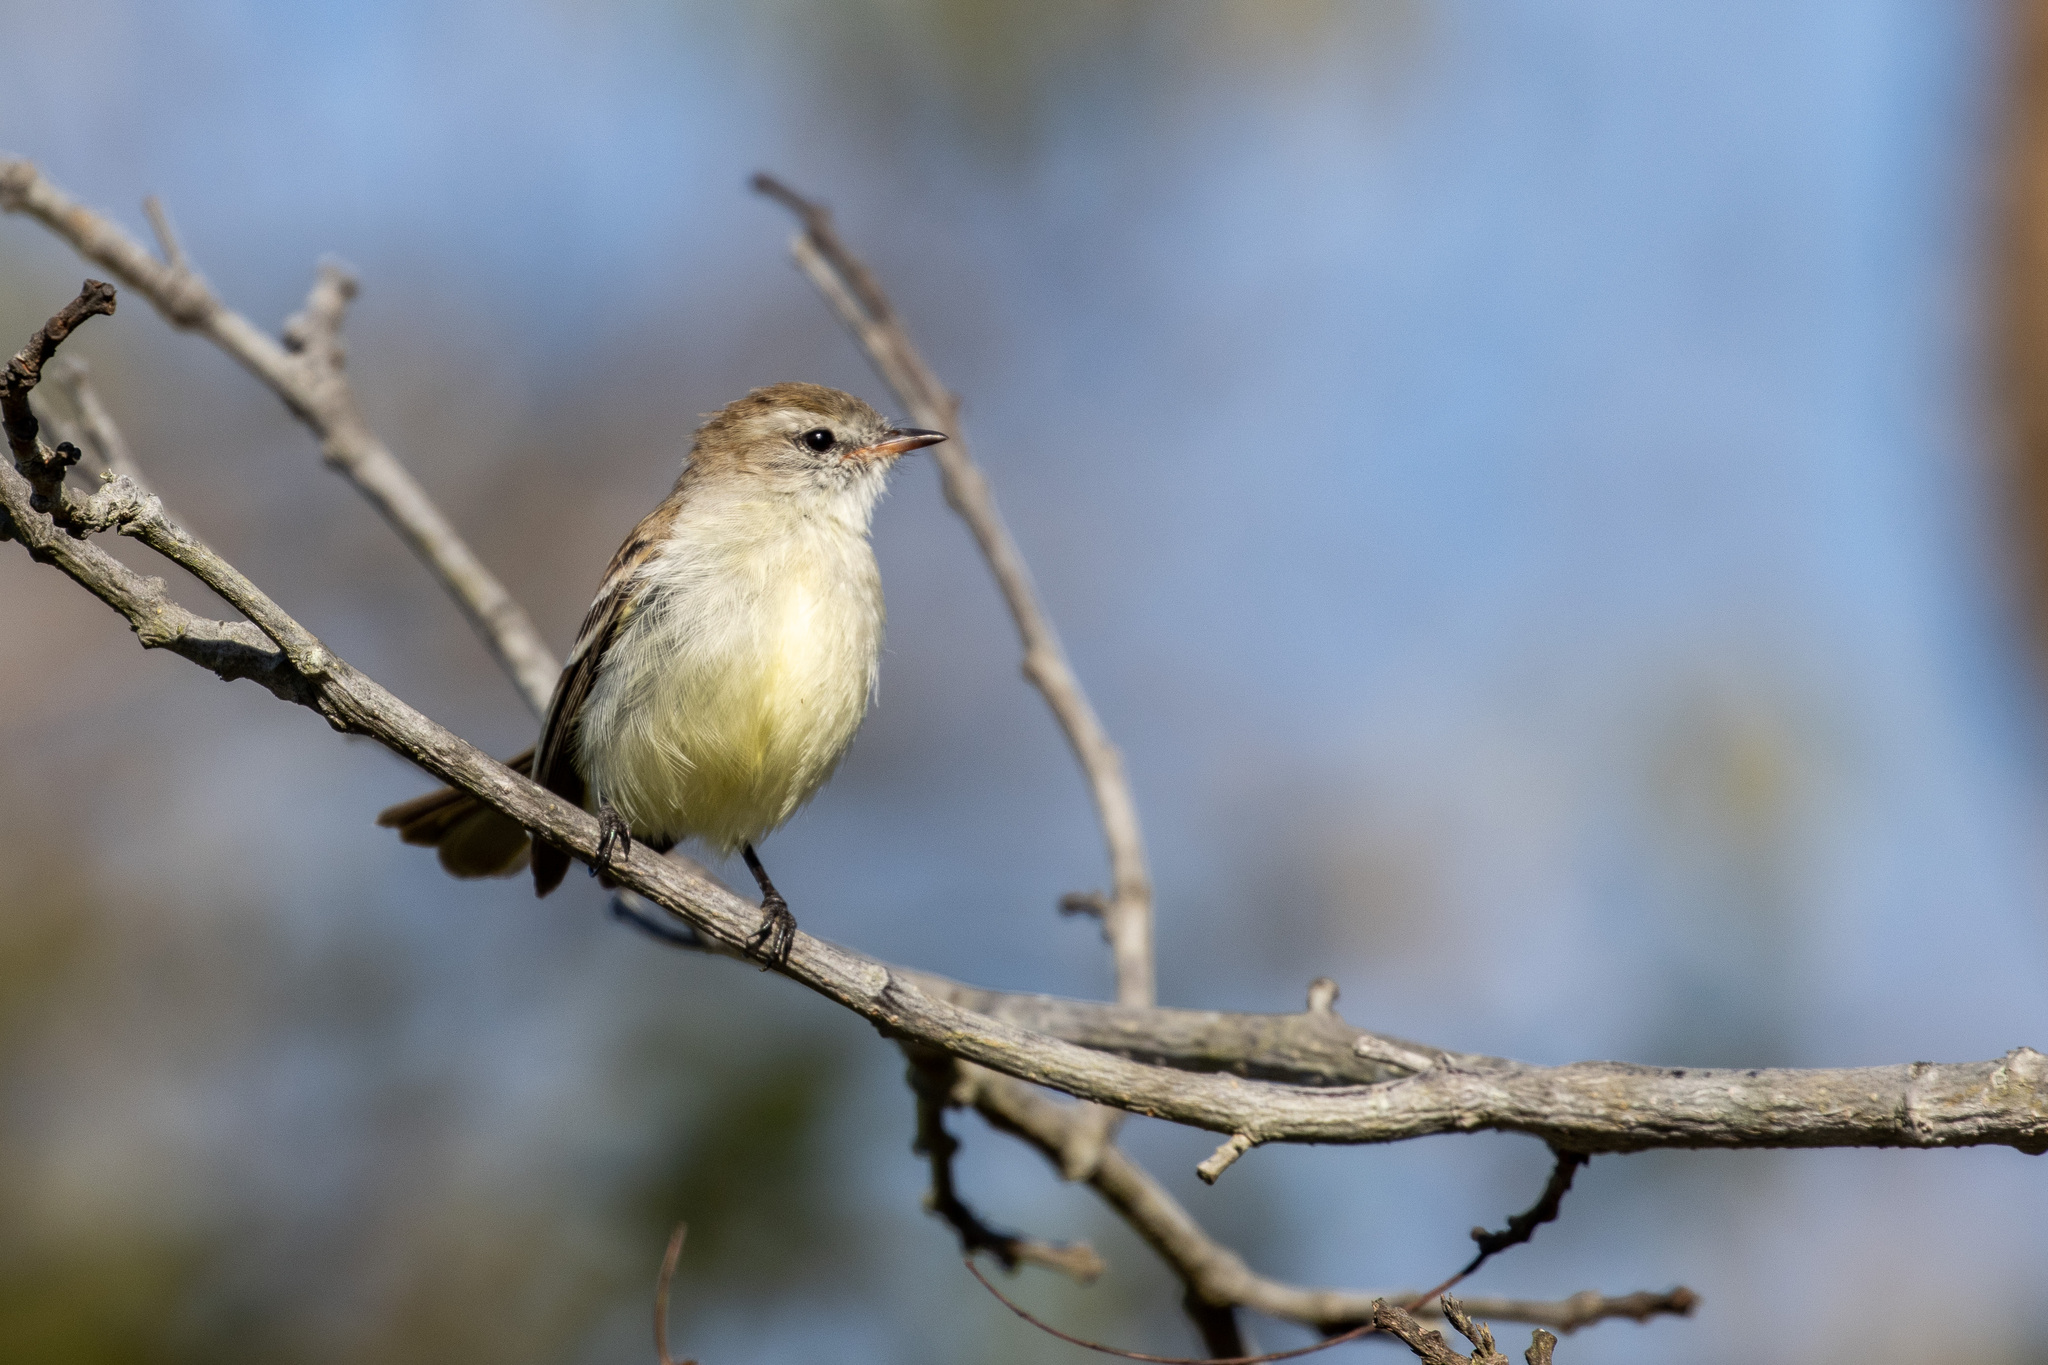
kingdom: Animalia
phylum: Chordata
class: Aves
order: Passeriformes
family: Tyrannidae
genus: Phaeomyias
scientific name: Phaeomyias murina
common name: Mouse-colored tyrannulet
